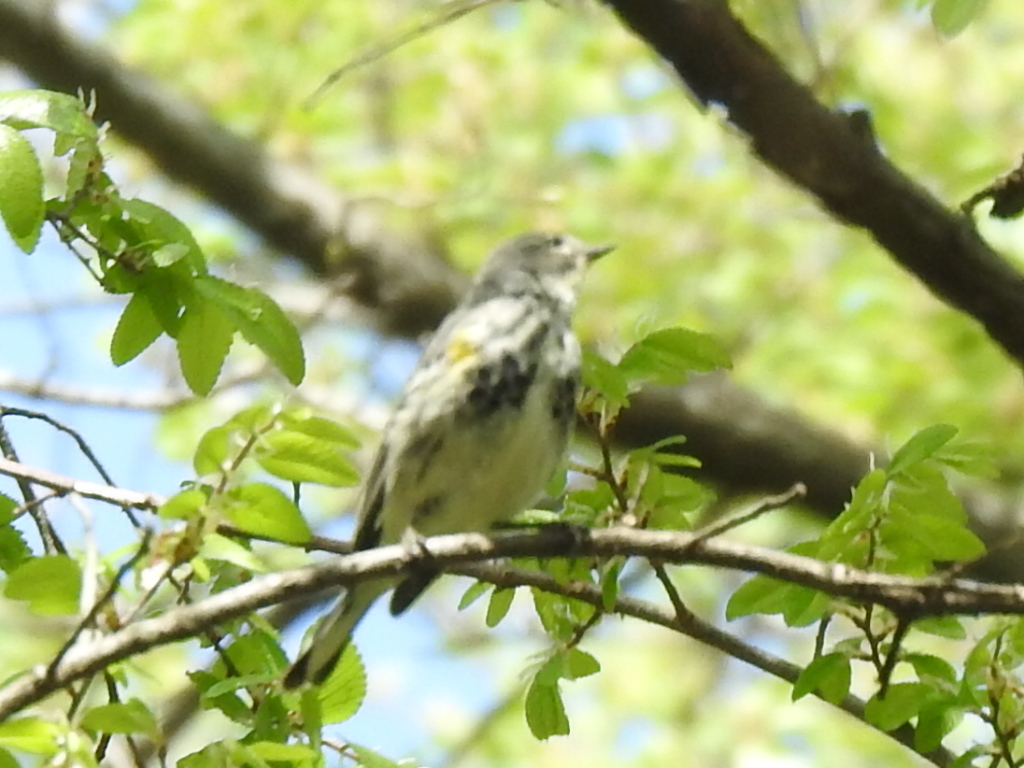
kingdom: Animalia
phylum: Chordata
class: Aves
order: Passeriformes
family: Parulidae
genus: Setophaga
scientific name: Setophaga coronata
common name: Myrtle warbler
